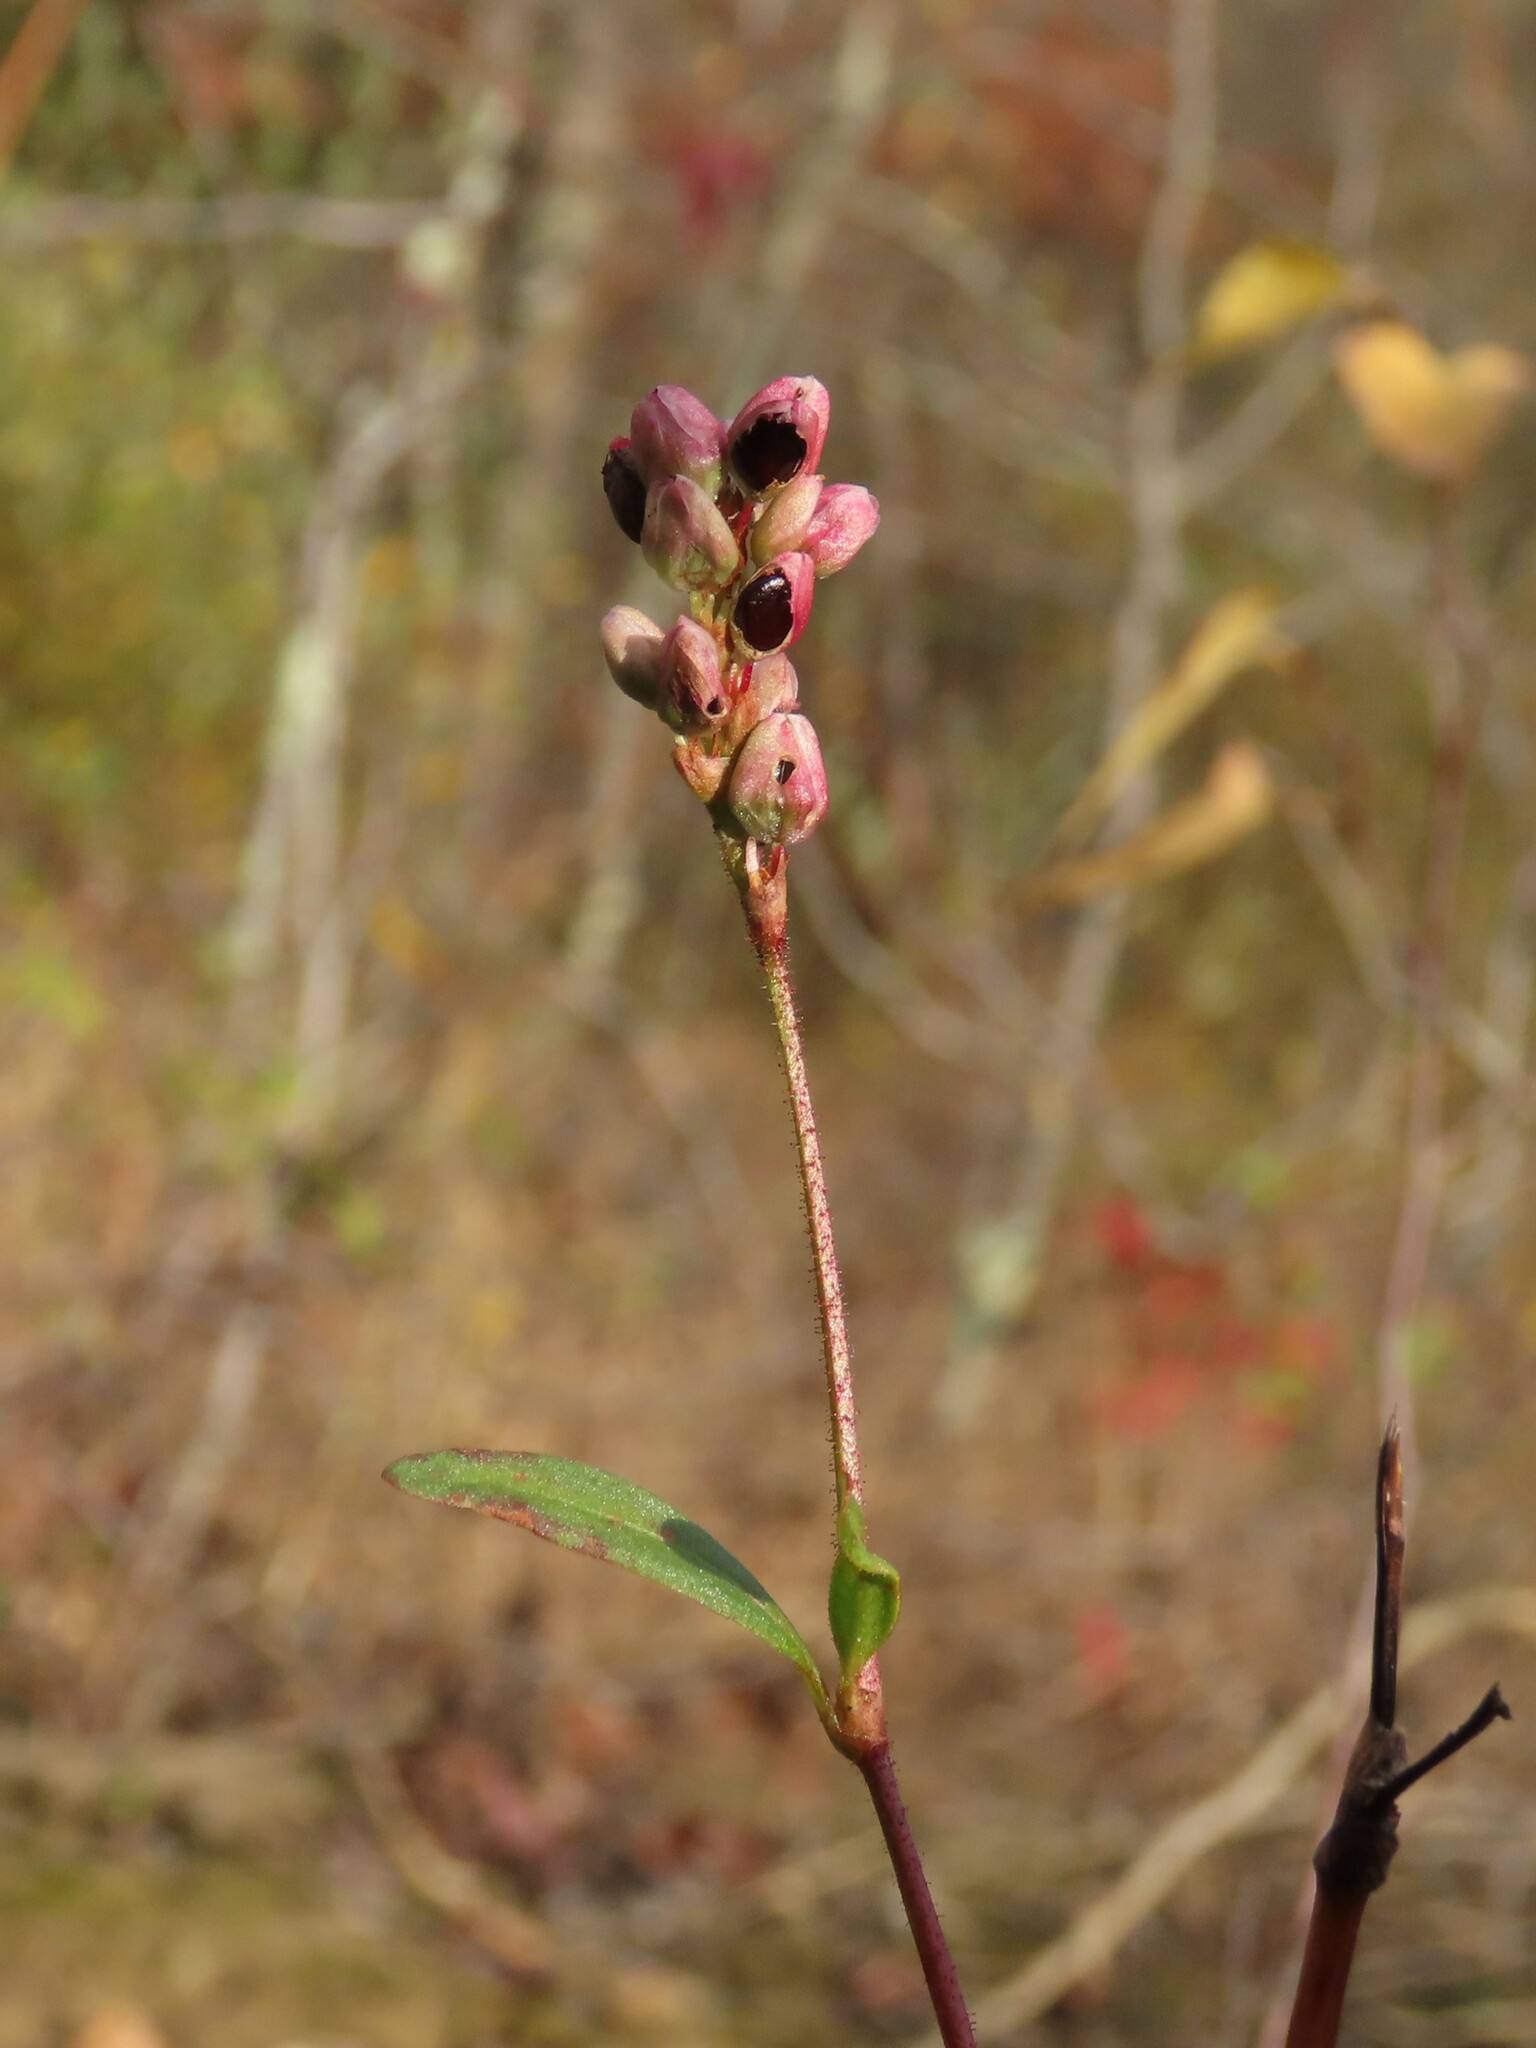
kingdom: Plantae
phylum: Tracheophyta
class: Magnoliopsida
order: Caryophyllales
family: Polygonaceae
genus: Persicaria
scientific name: Persicaria pensylvanica
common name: Pinkweed
